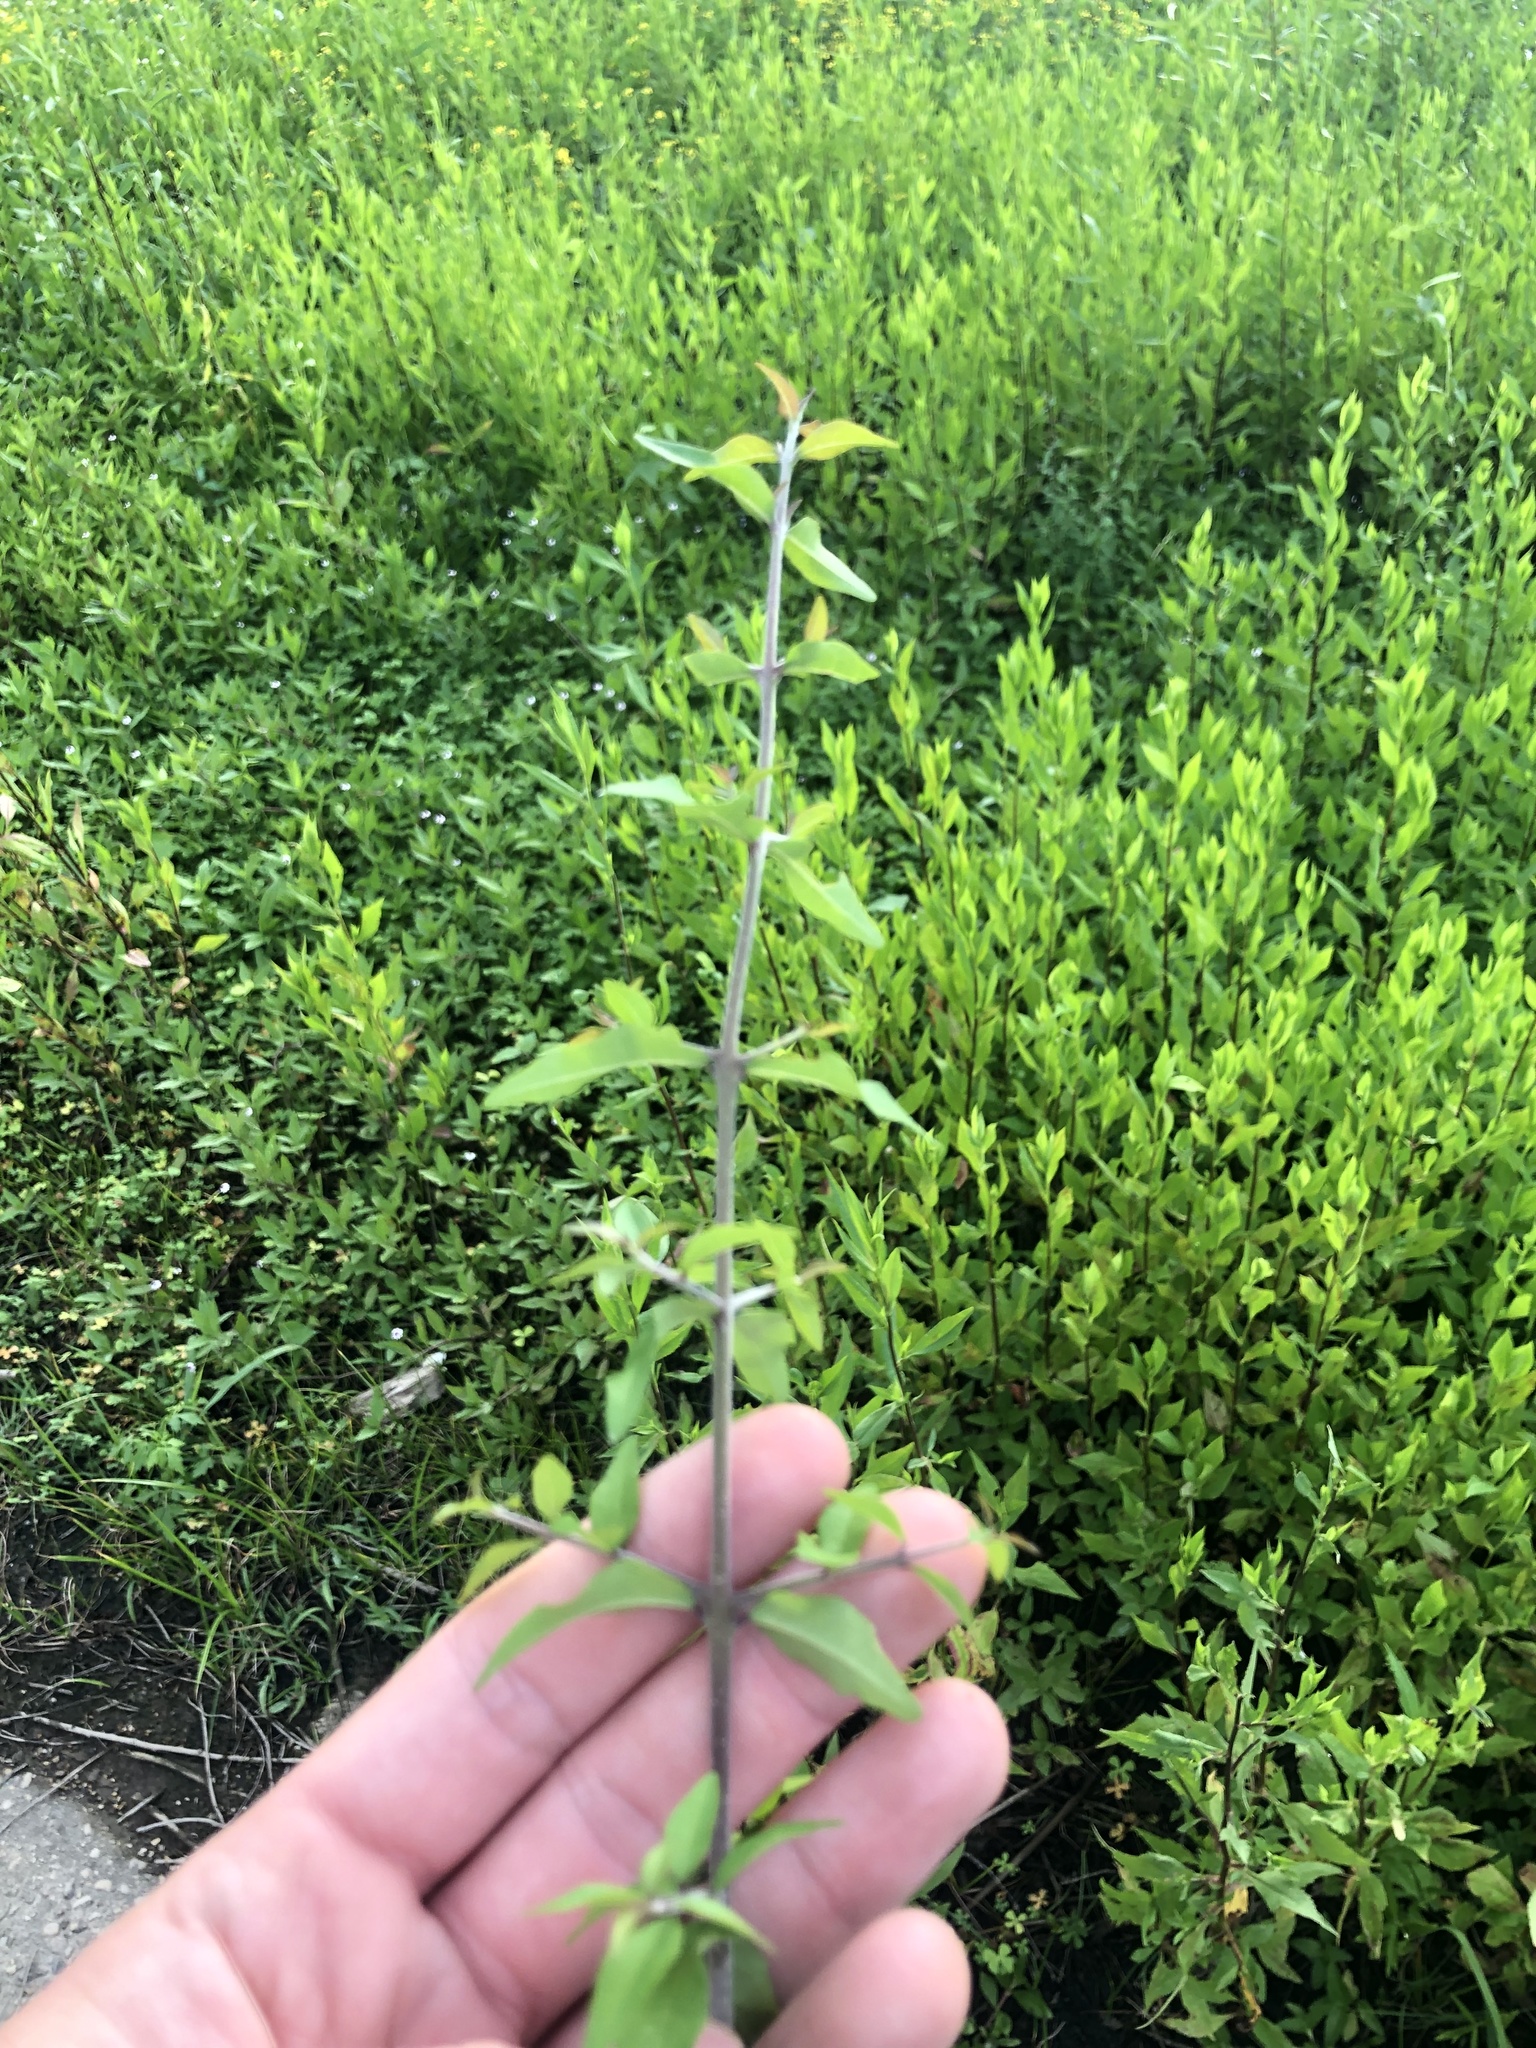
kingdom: Plantae
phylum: Tracheophyta
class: Magnoliopsida
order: Lamiales
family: Oleaceae
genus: Forestiera
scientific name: Forestiera acuminata
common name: Swamp-privet
